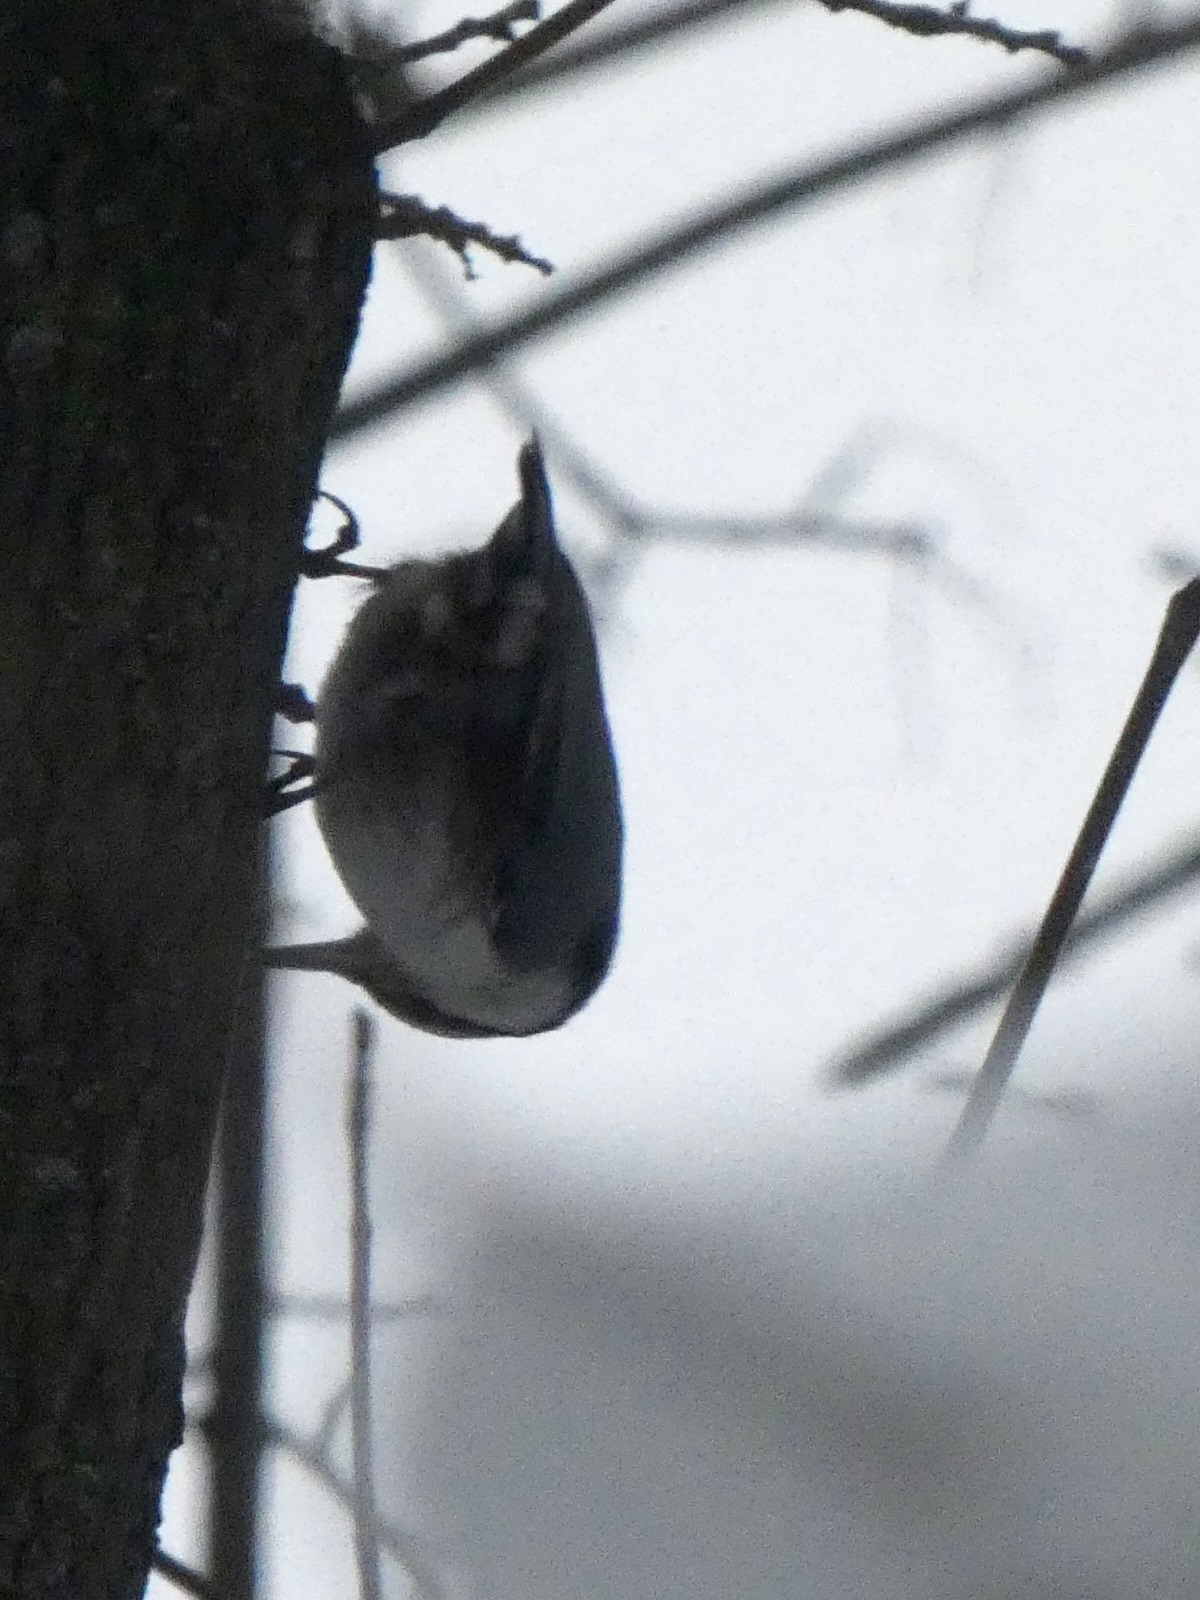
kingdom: Animalia
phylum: Chordata
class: Aves
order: Passeriformes
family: Sittidae
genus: Sitta
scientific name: Sitta europaea
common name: Eurasian nuthatch
